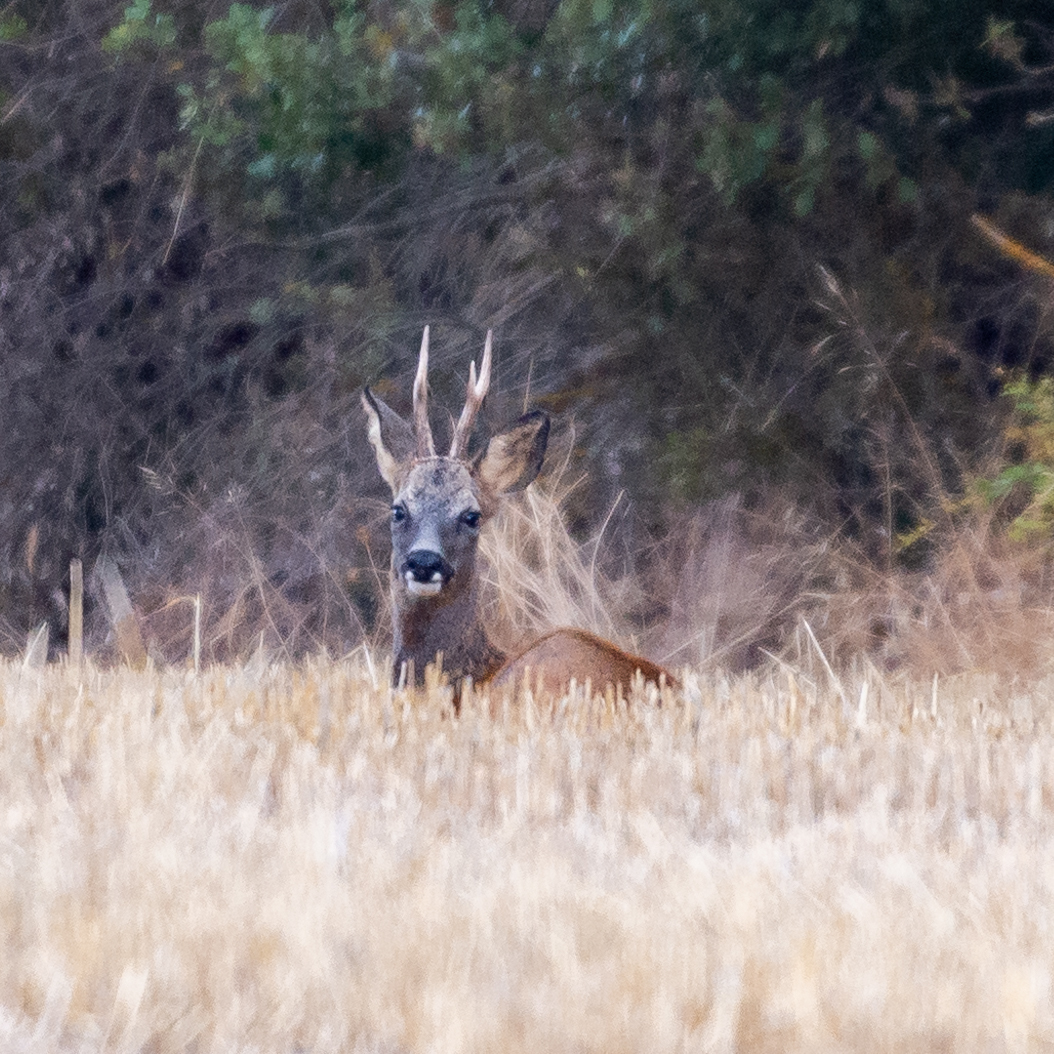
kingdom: Animalia
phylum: Chordata
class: Mammalia
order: Artiodactyla
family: Cervidae
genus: Capreolus
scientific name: Capreolus capreolus
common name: Western roe deer
